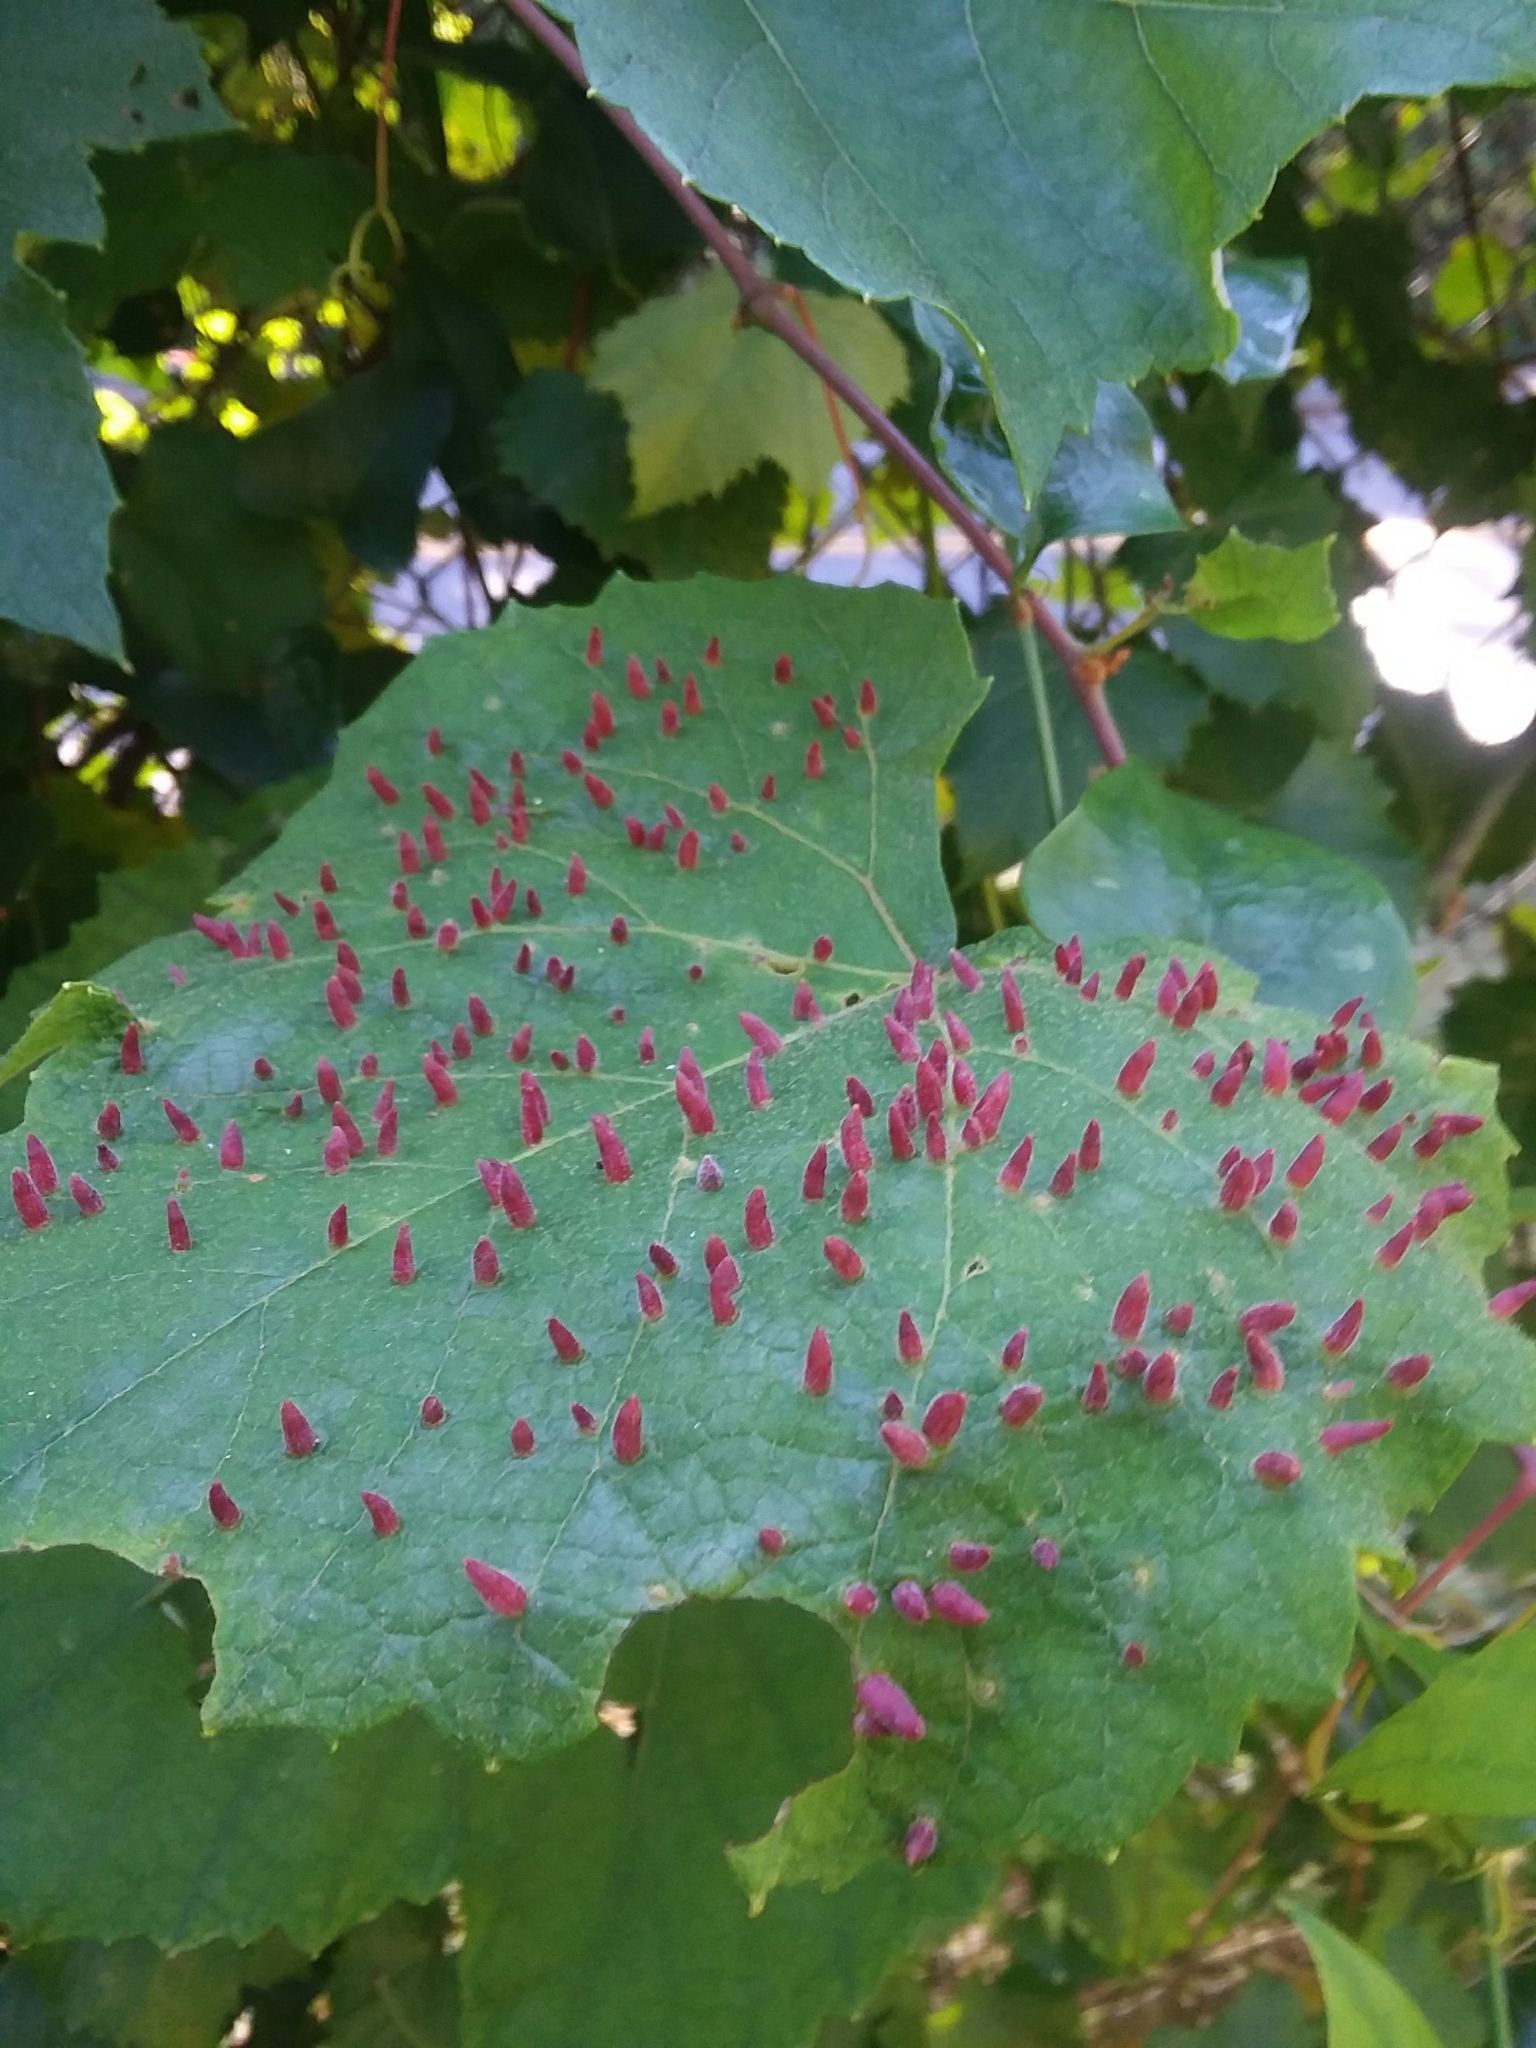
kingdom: Animalia
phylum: Arthropoda
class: Insecta
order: Diptera
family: Cecidomyiidae
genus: Ampelomyia
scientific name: Ampelomyia viticola
